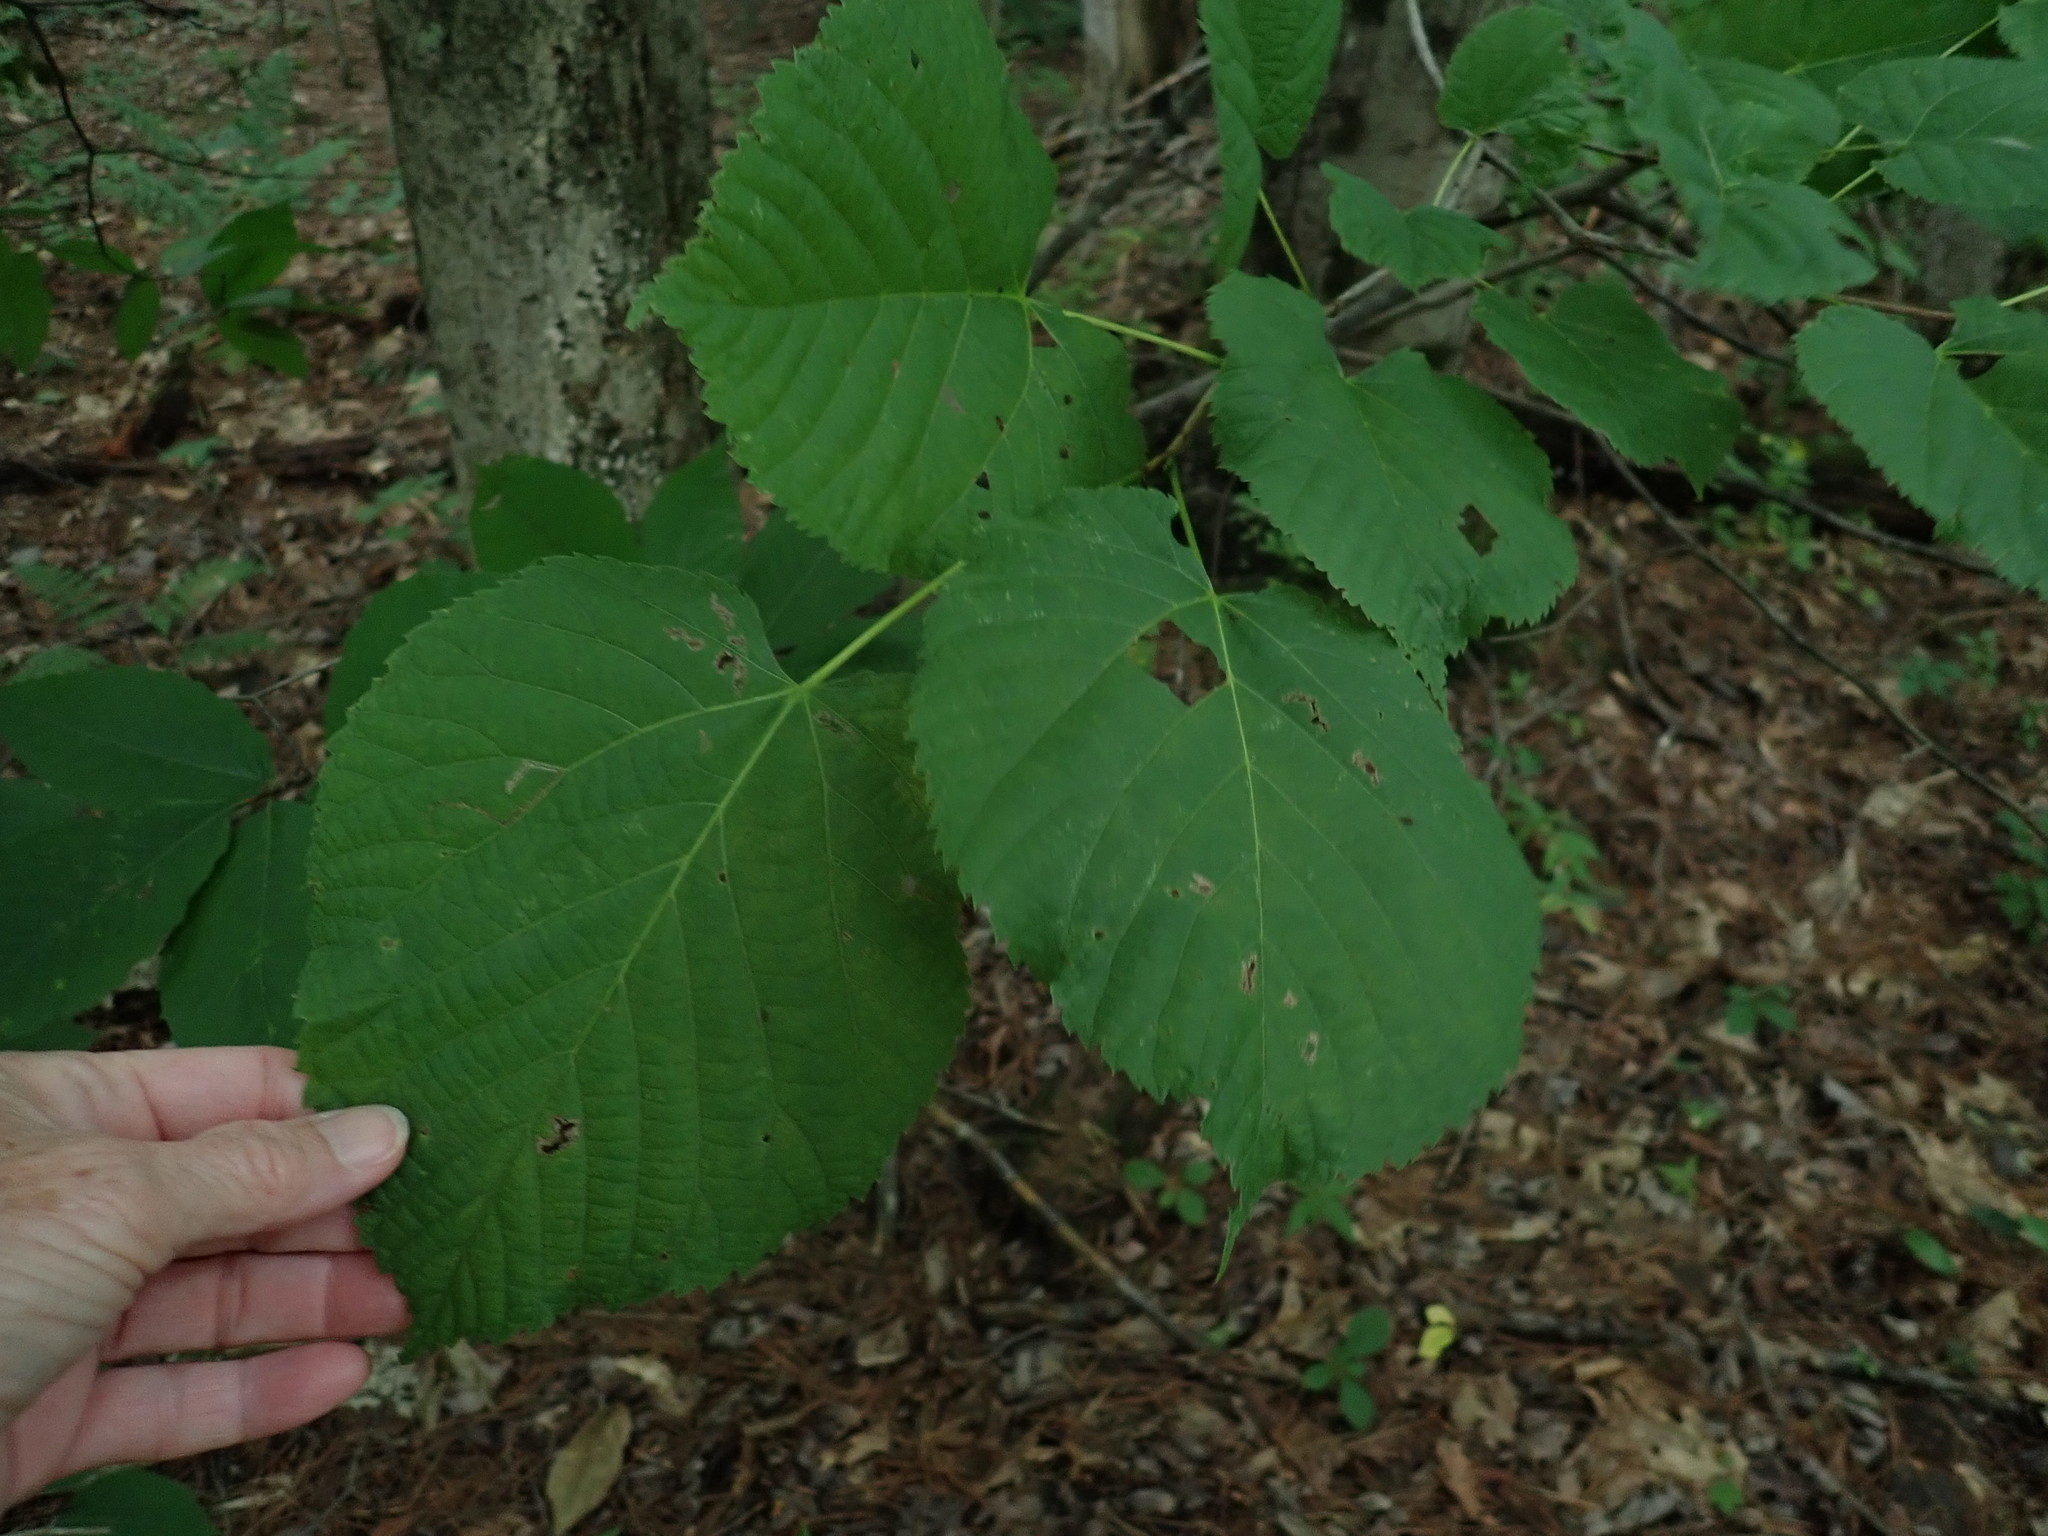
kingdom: Plantae
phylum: Tracheophyta
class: Magnoliopsida
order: Malvales
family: Malvaceae
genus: Tilia
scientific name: Tilia americana
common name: Basswood
